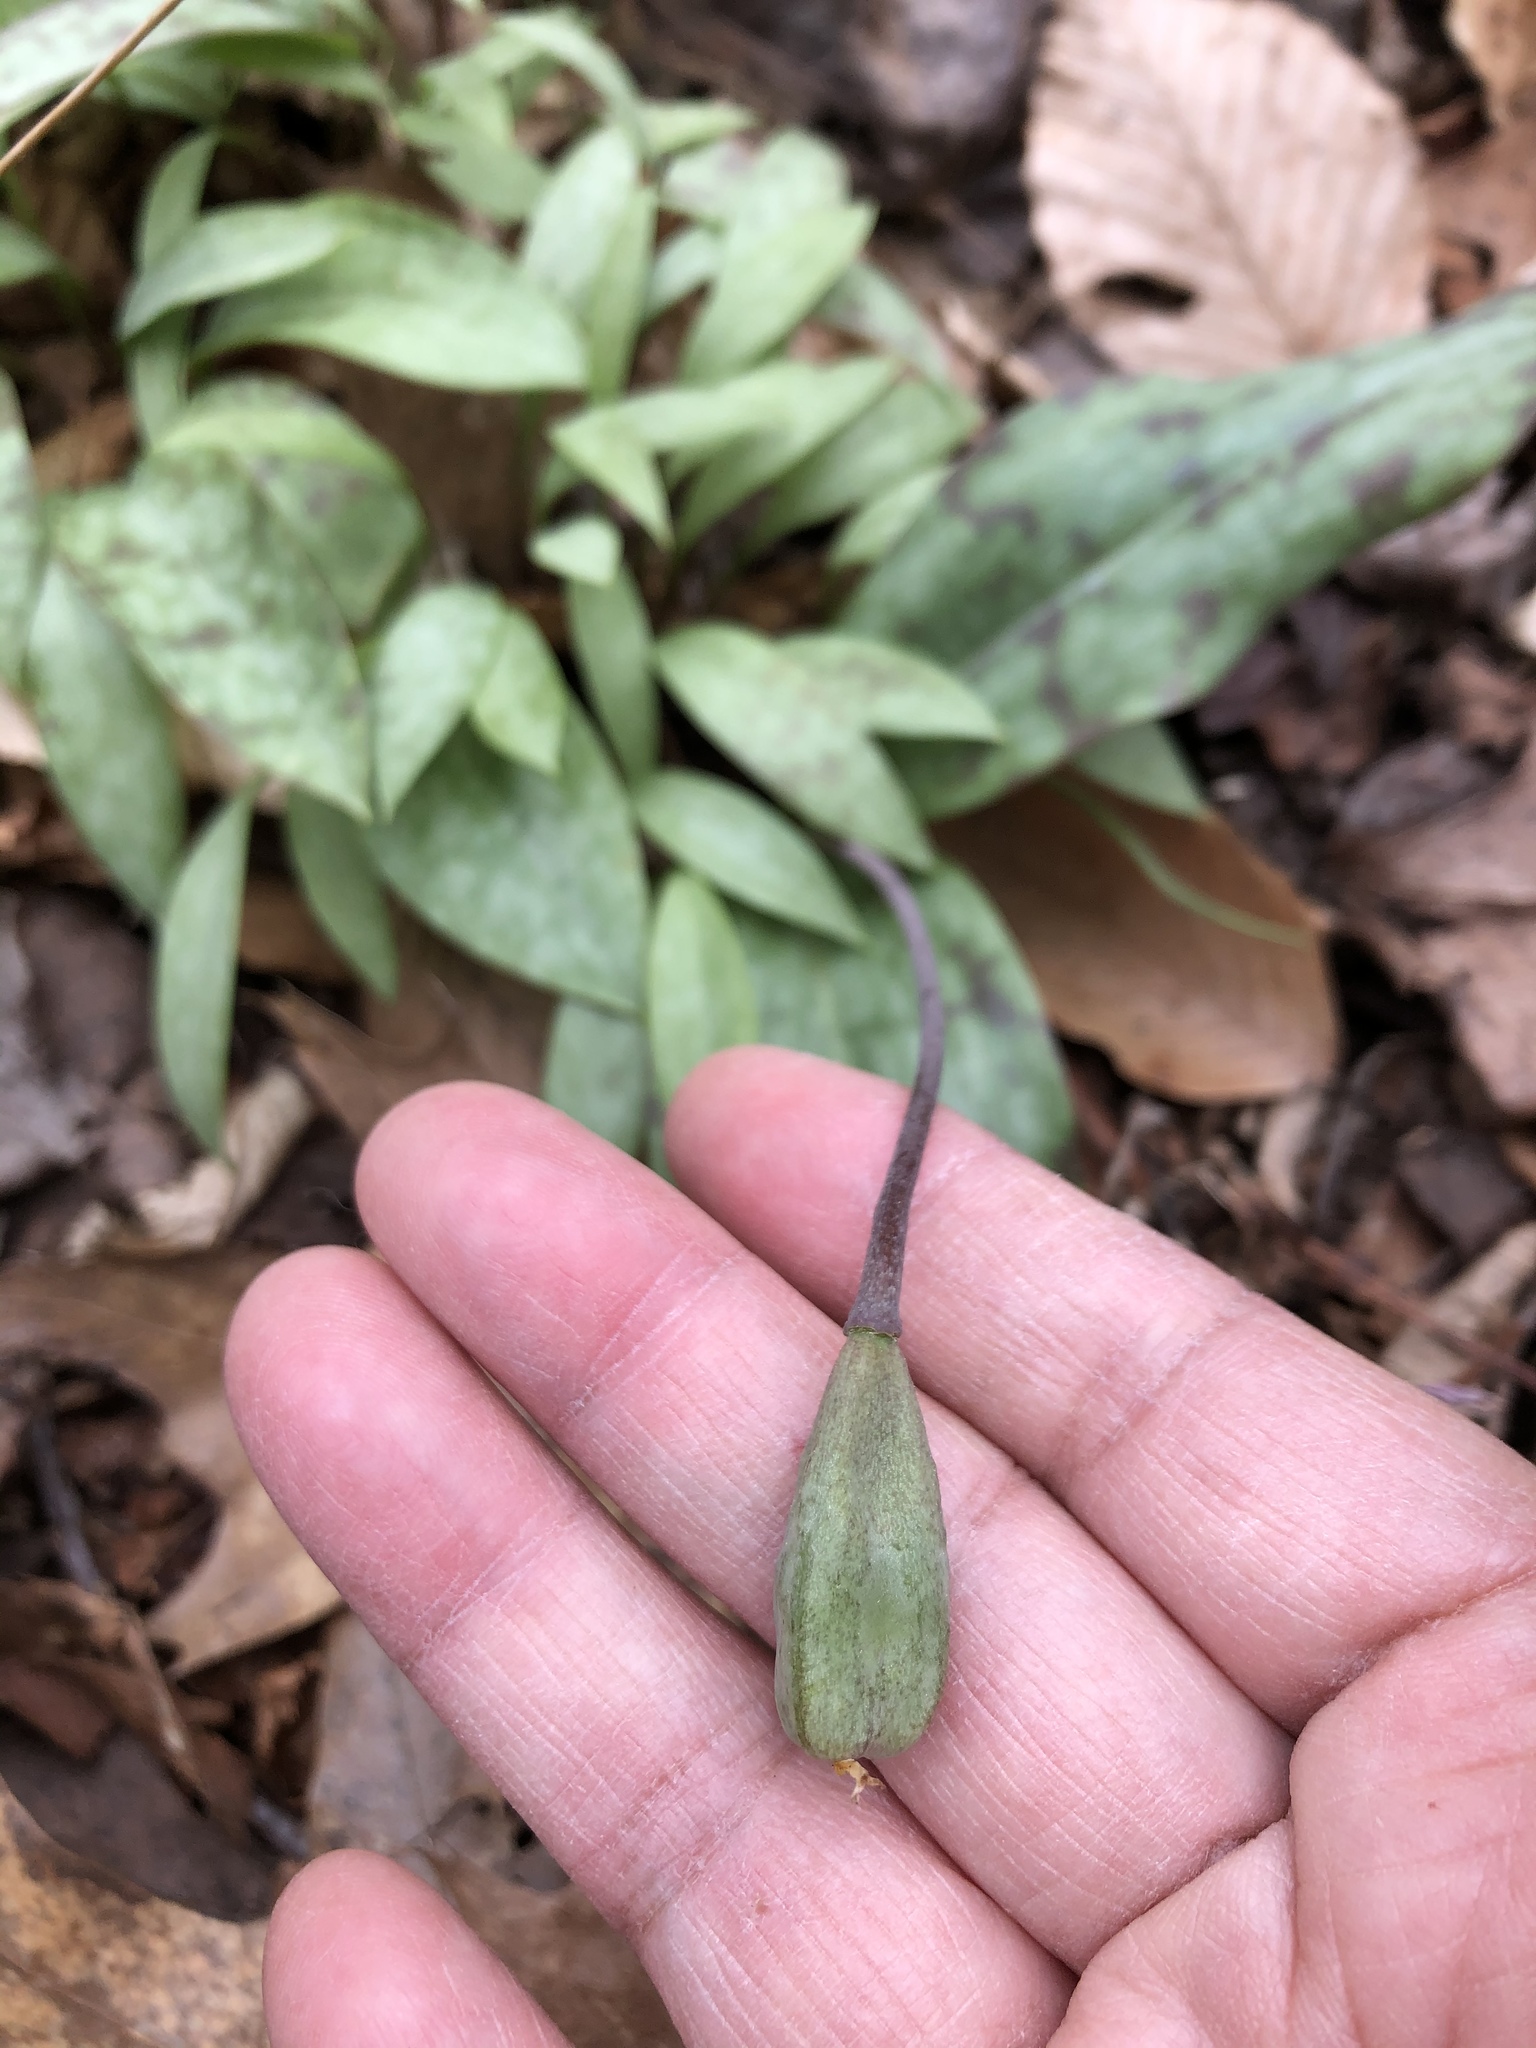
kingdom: Plantae
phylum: Tracheophyta
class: Liliopsida
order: Liliales
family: Liliaceae
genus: Erythronium
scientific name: Erythronium umbilicatum
